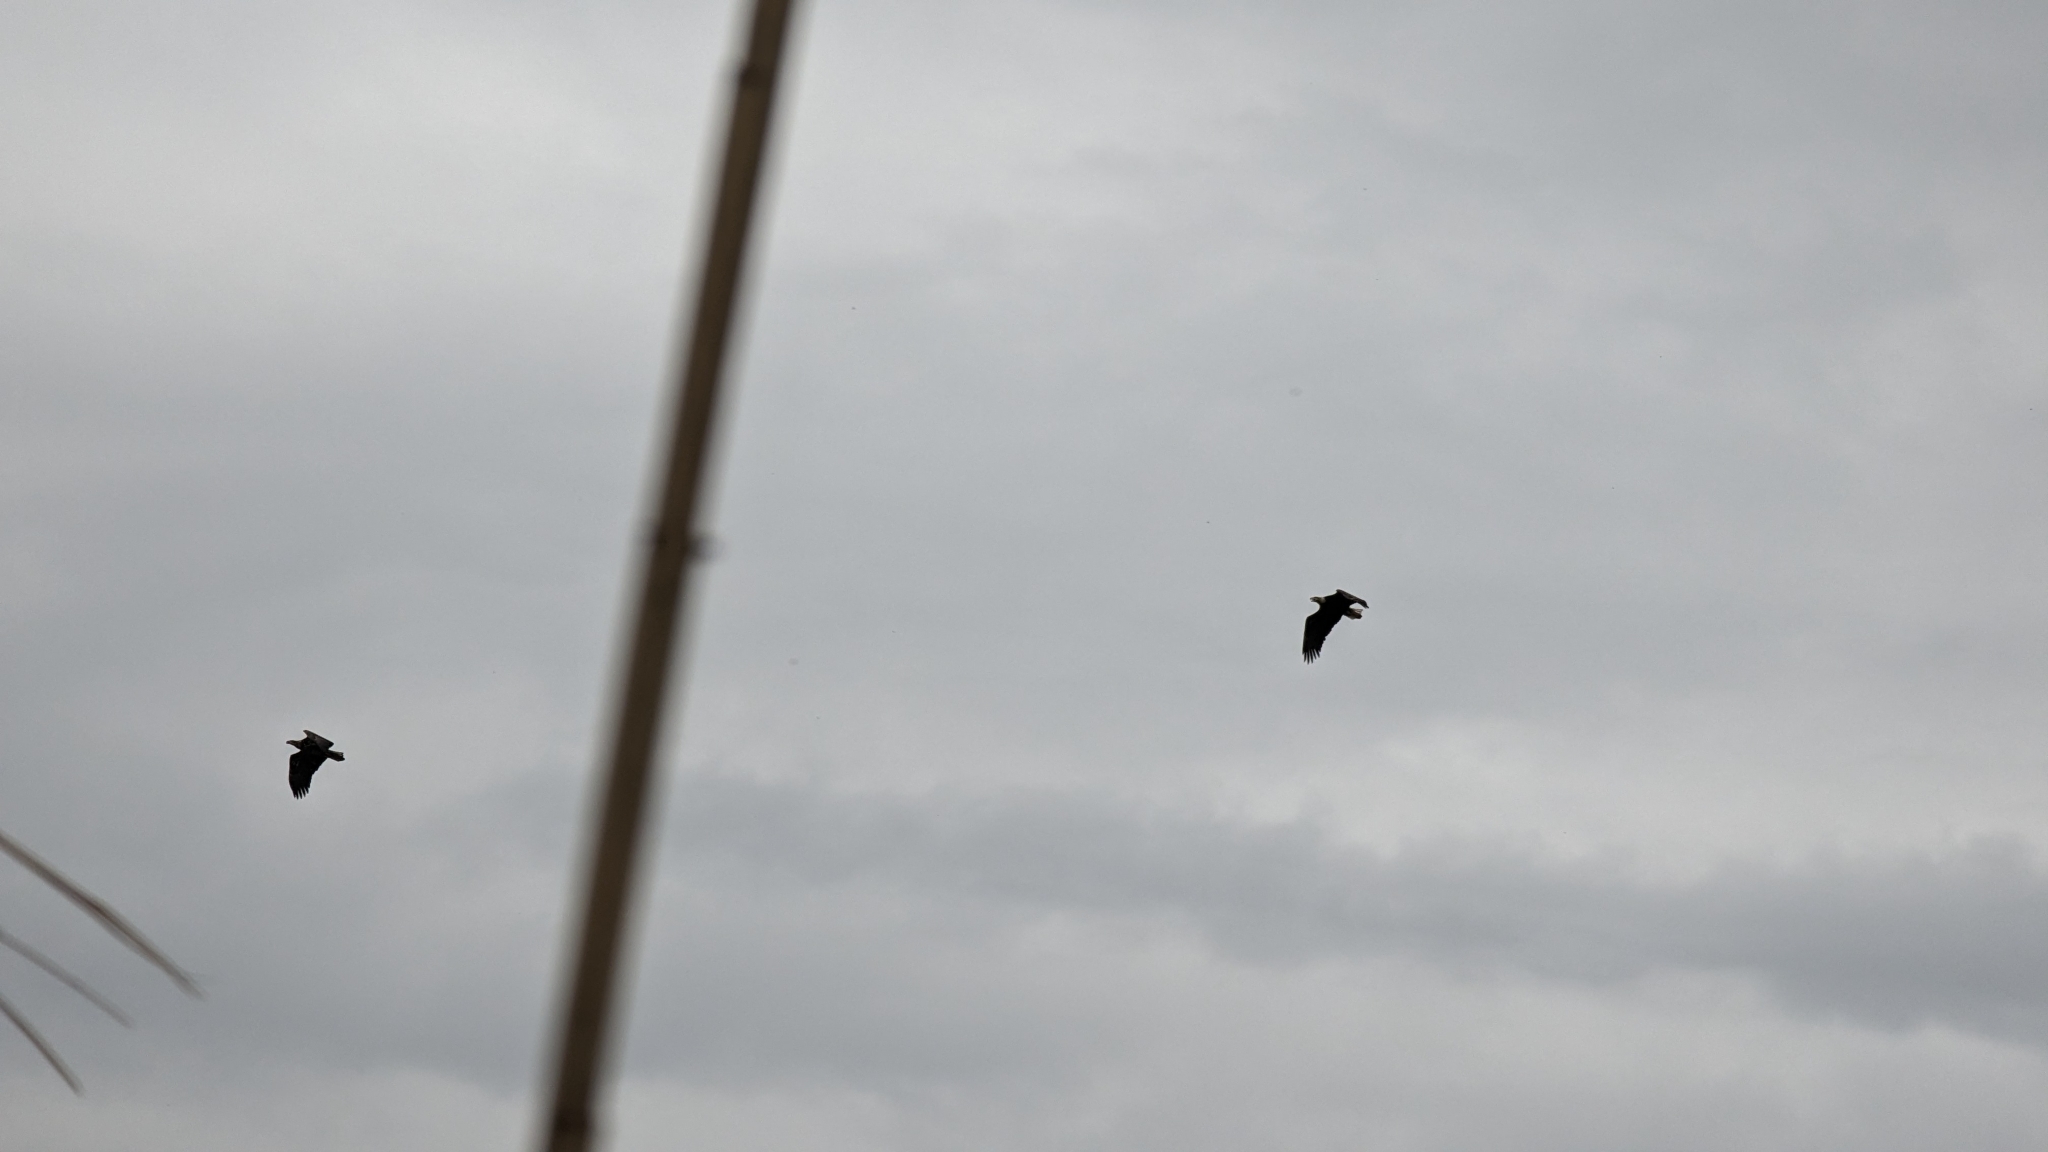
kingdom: Animalia
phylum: Chordata
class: Aves
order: Accipitriformes
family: Accipitridae
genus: Haliaeetus
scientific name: Haliaeetus leucocephalus
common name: Bald eagle
